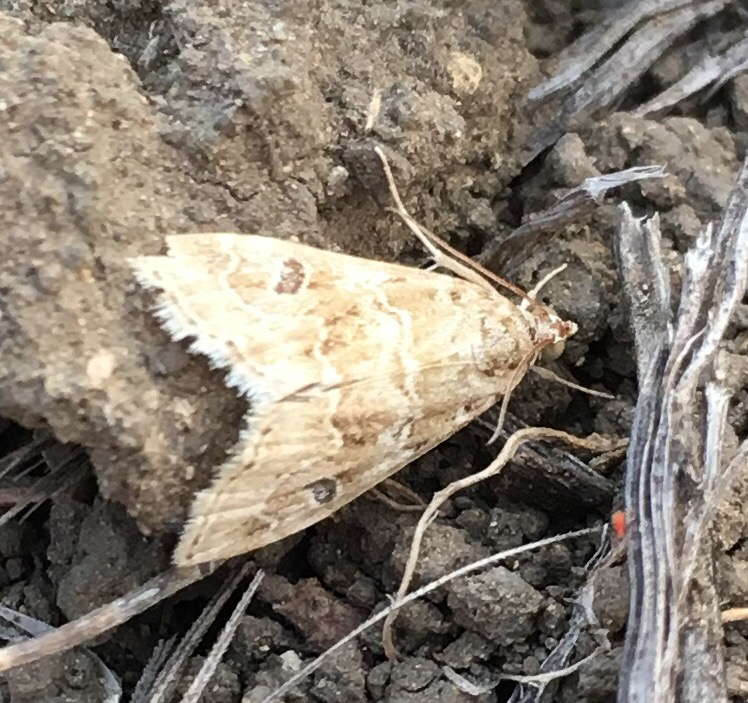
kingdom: Animalia
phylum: Arthropoda
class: Insecta
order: Lepidoptera
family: Crambidae
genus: Hellula
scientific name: Hellula rogatalis
